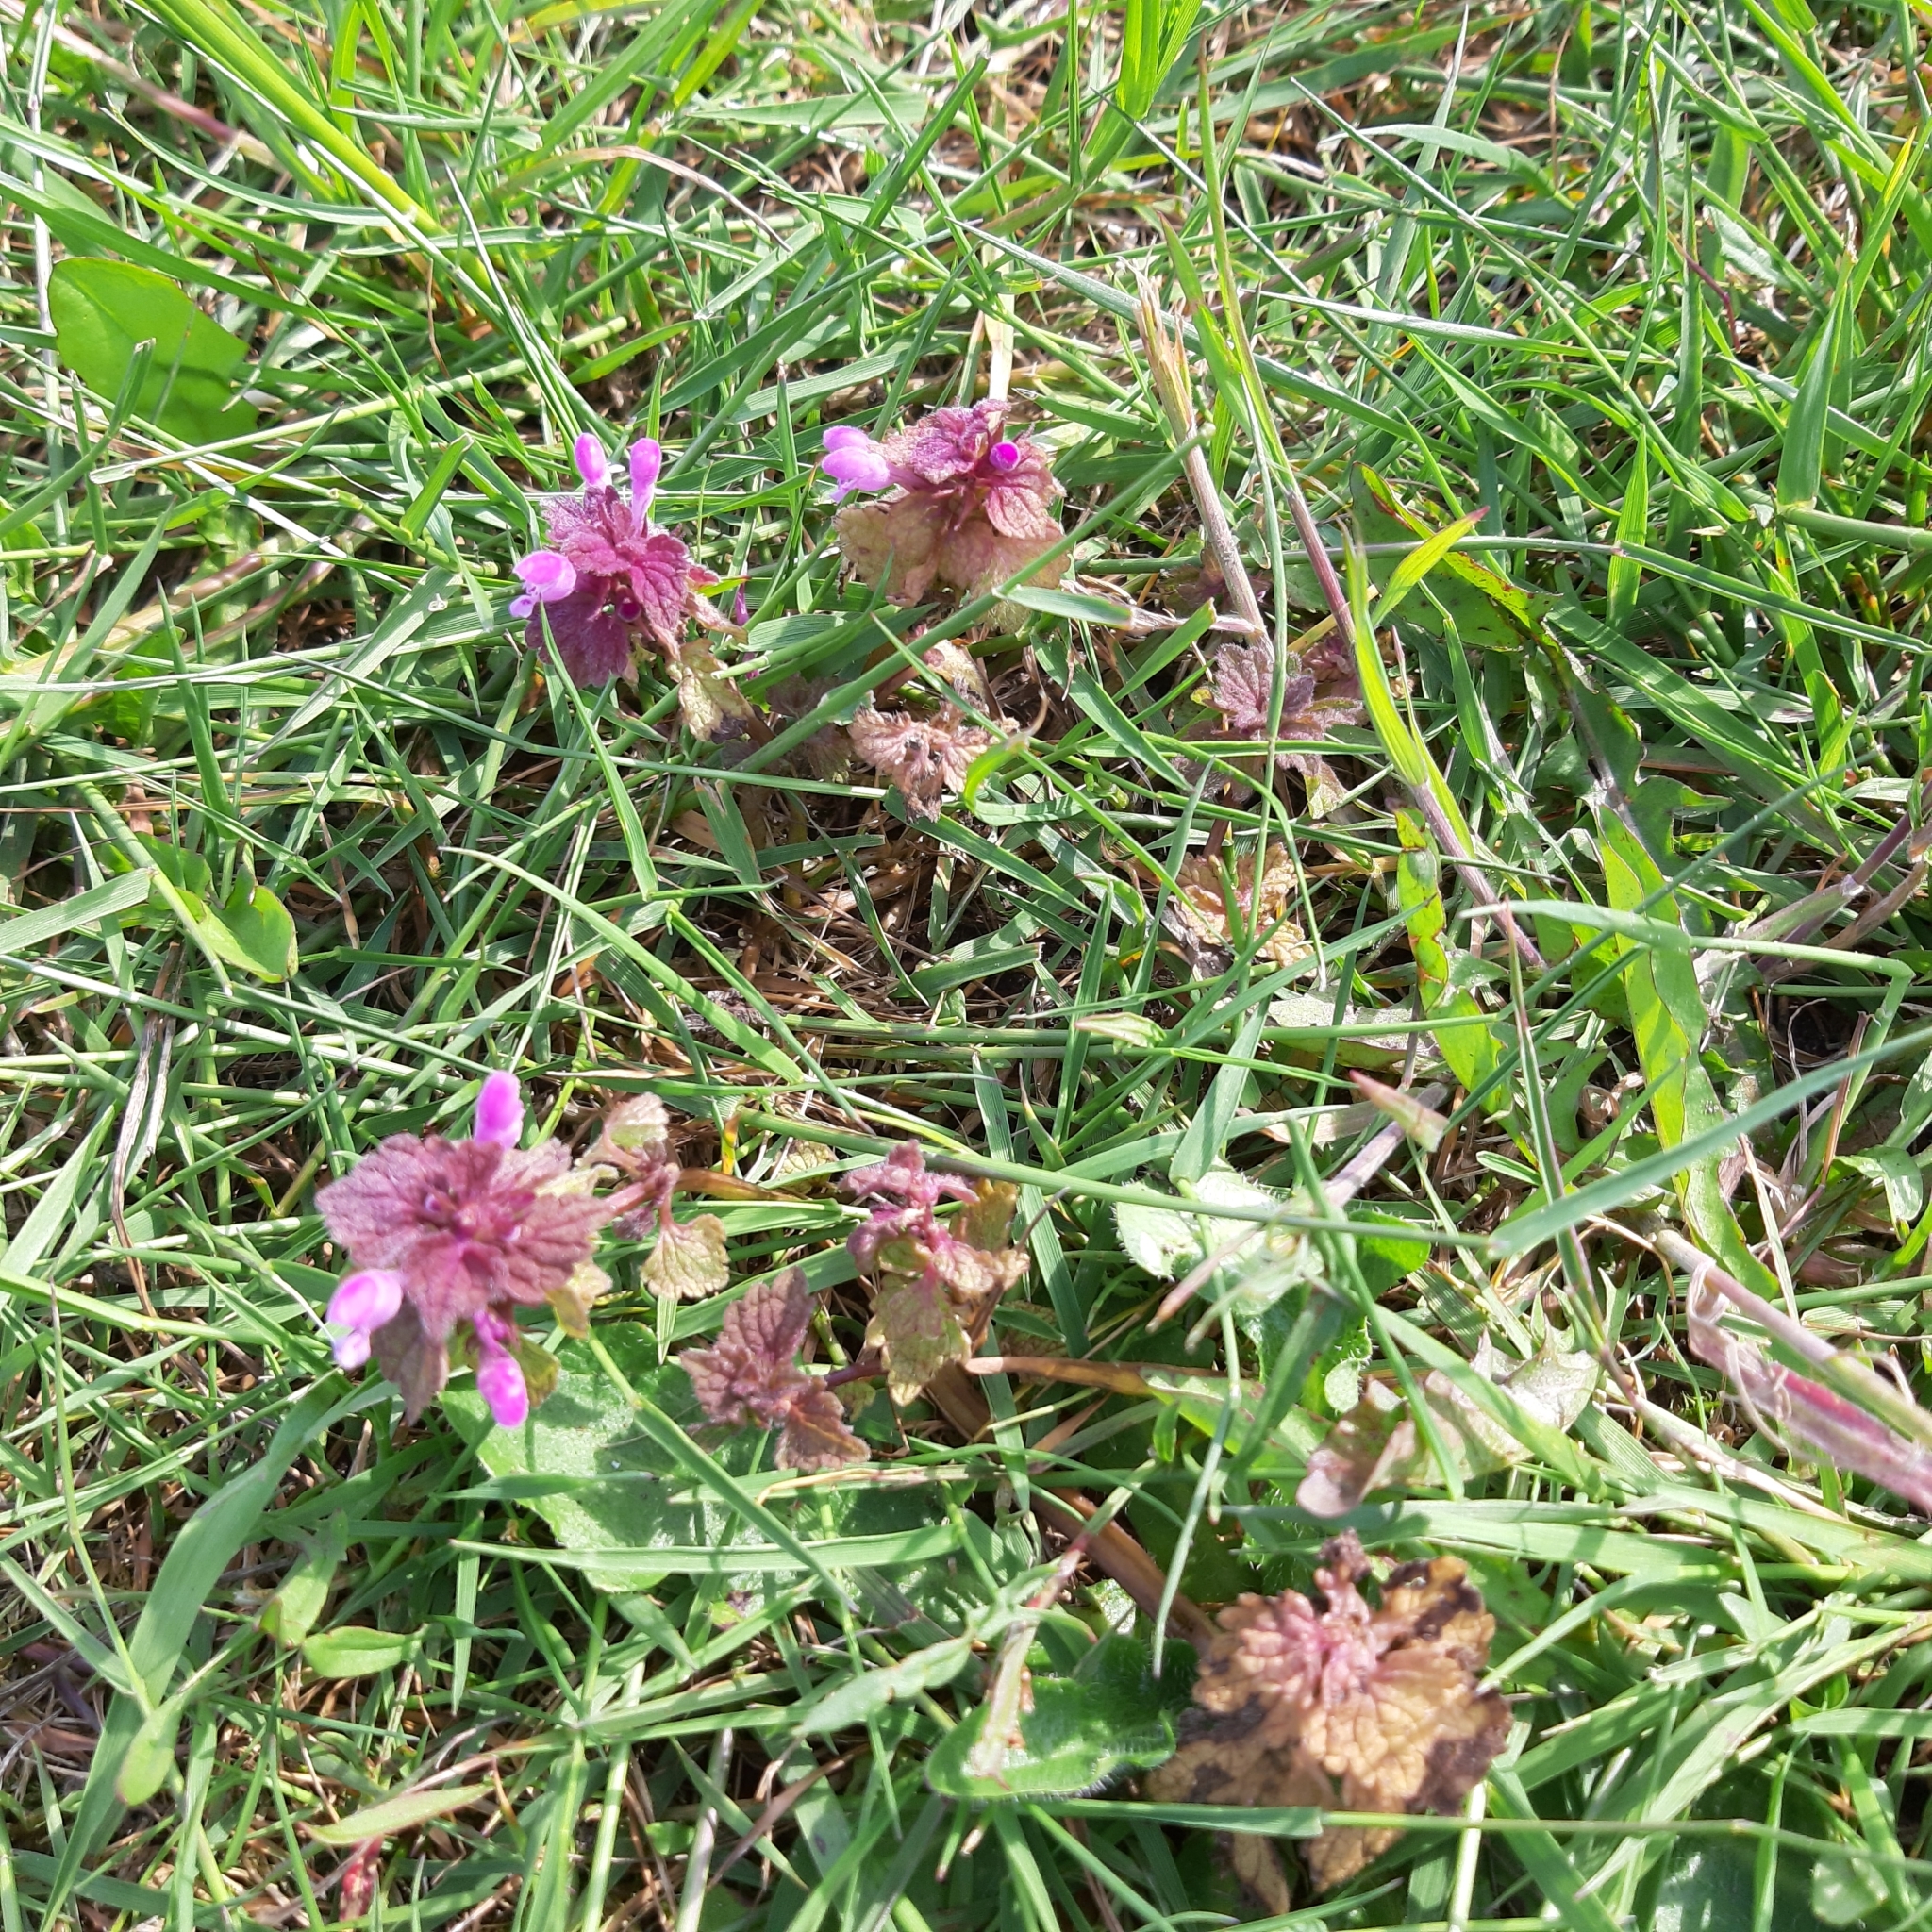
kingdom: Plantae
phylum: Tracheophyta
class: Magnoliopsida
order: Lamiales
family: Lamiaceae
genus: Lamium
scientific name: Lamium purpureum
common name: Red dead-nettle
